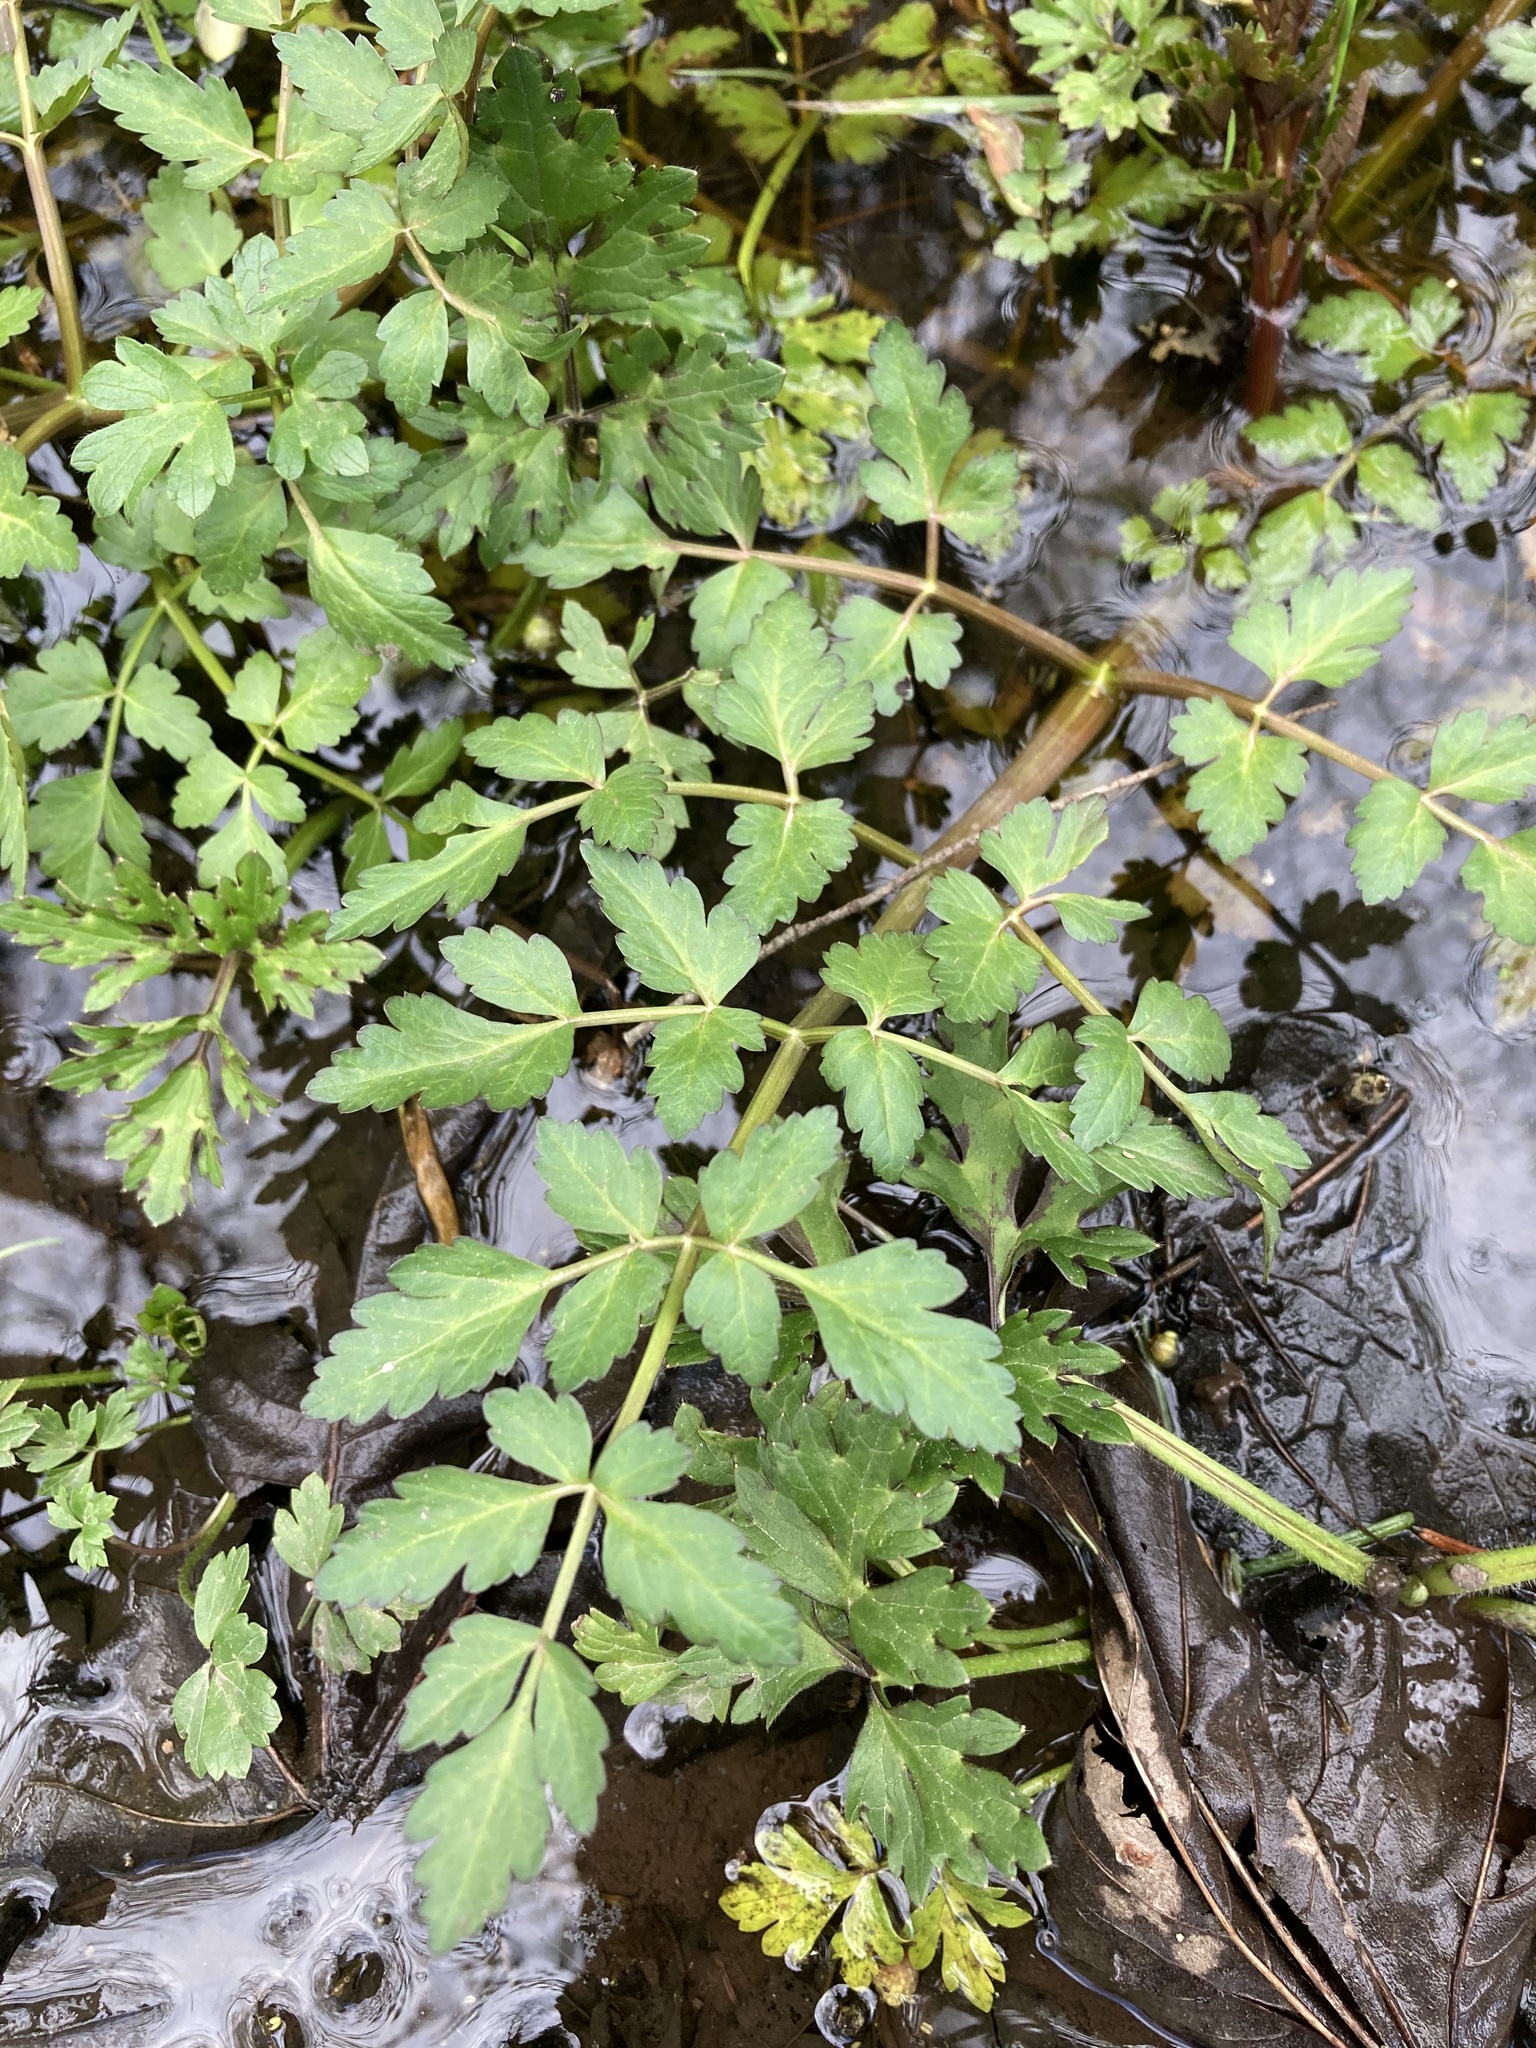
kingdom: Plantae
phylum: Tracheophyta
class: Magnoliopsida
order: Apiales
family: Apiaceae
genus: Oenanthe
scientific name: Oenanthe sarmentosa
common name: American water-parsley
